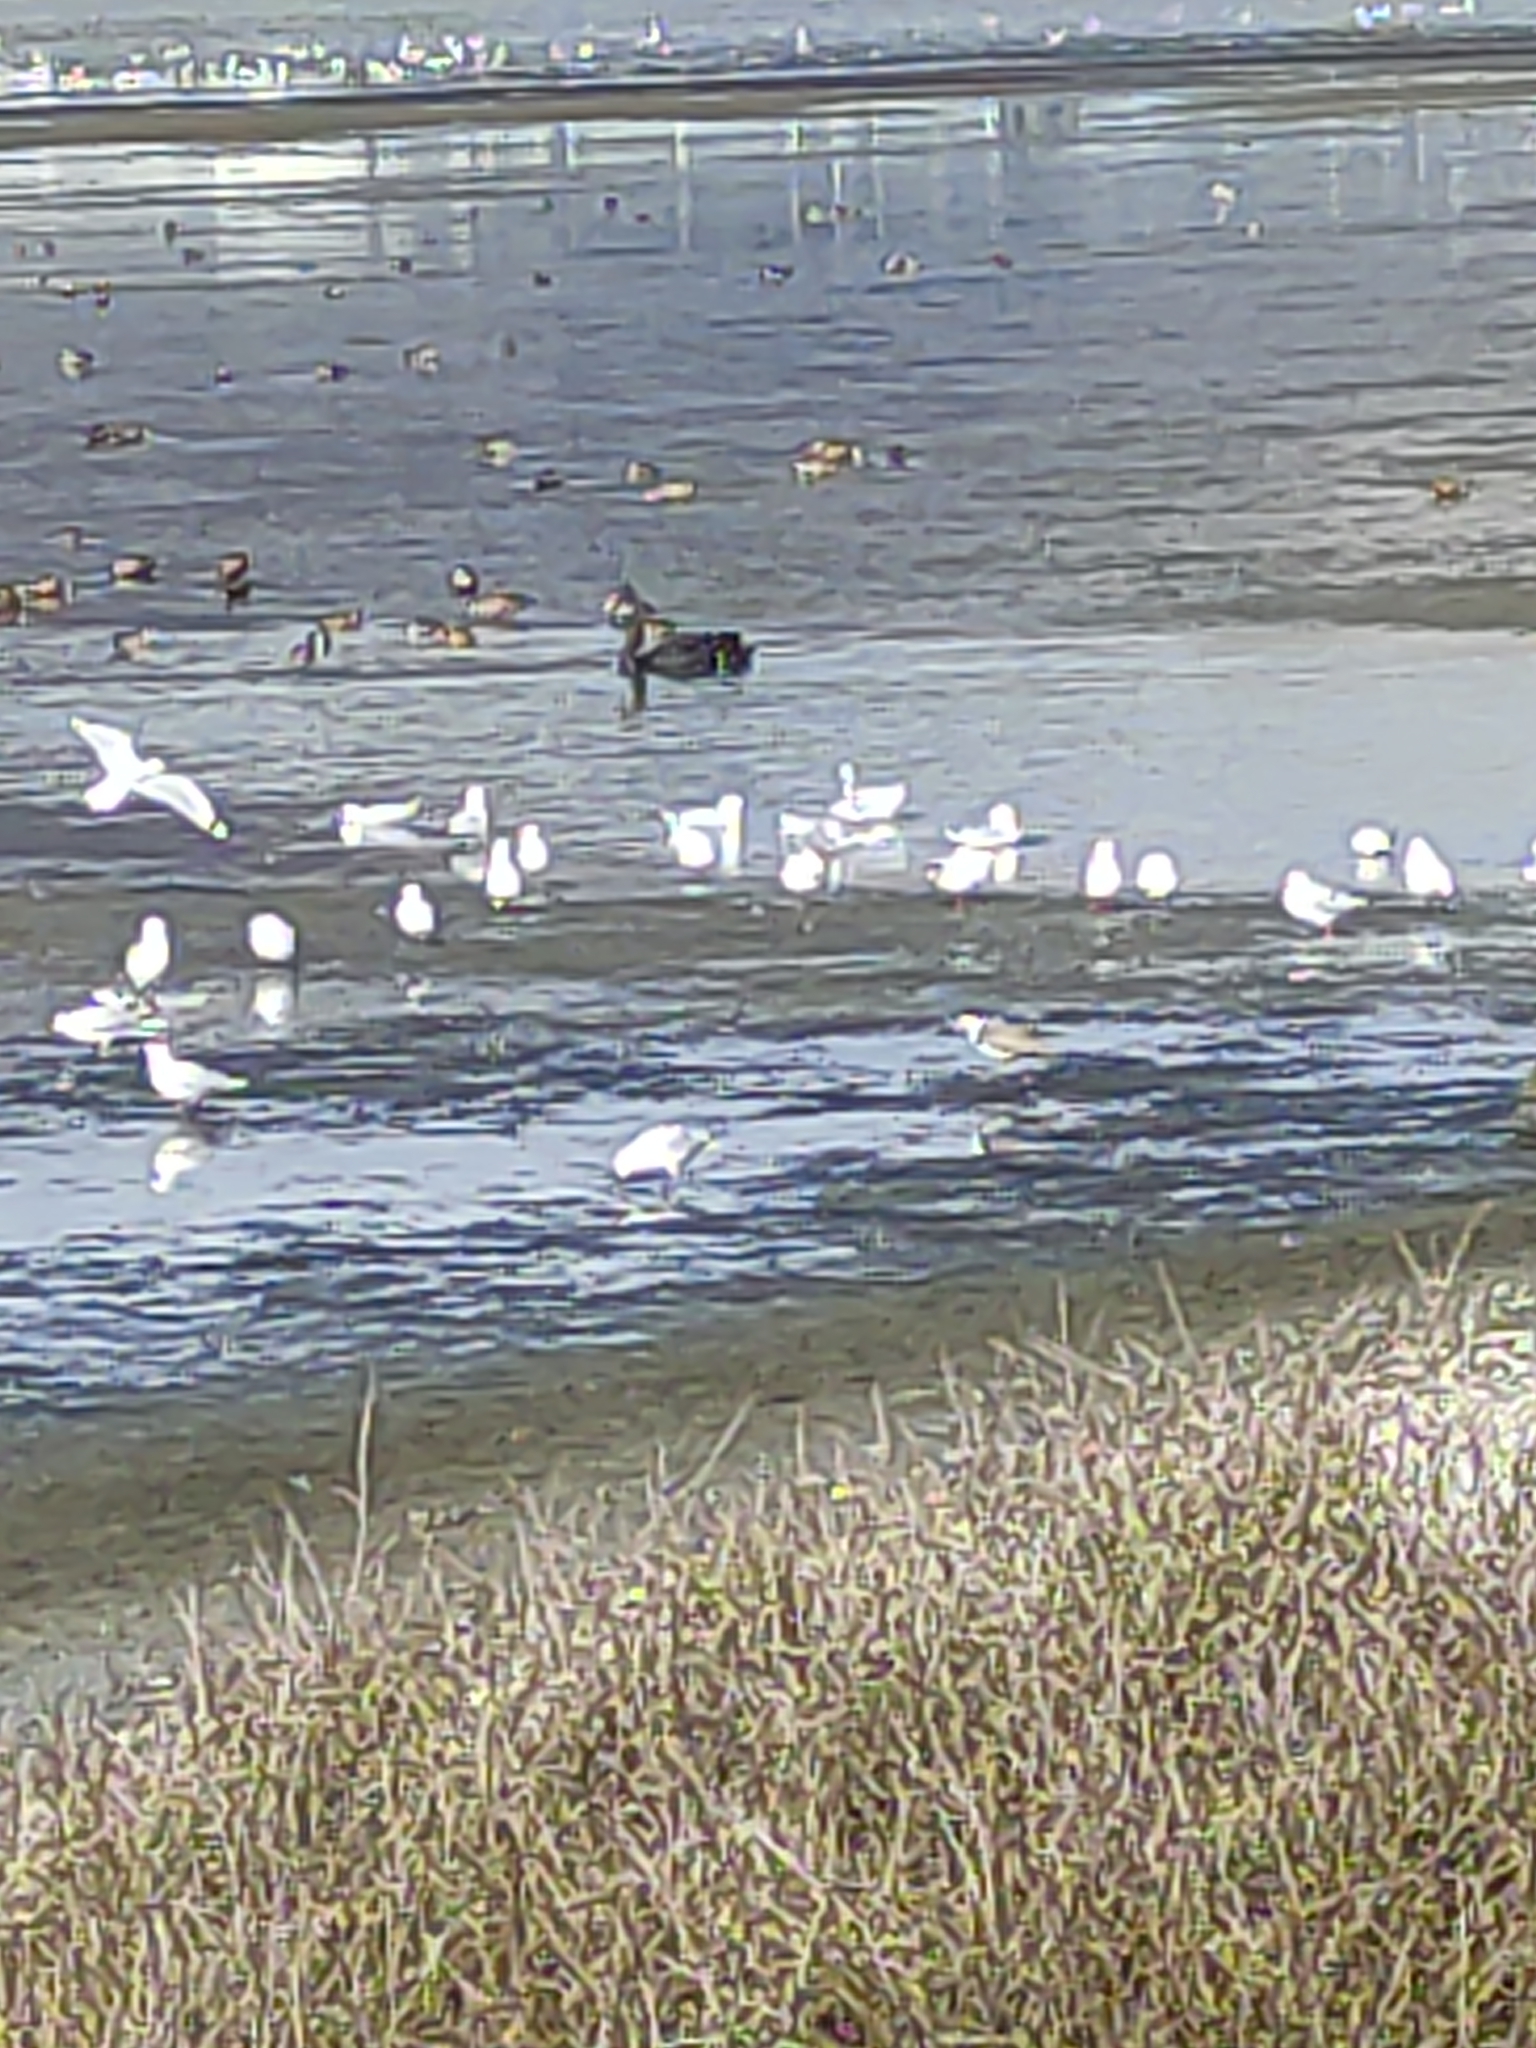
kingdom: Animalia
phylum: Chordata
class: Aves
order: Anseriformes
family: Anatidae
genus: Cygnus
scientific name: Cygnus atratus
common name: Black swan
